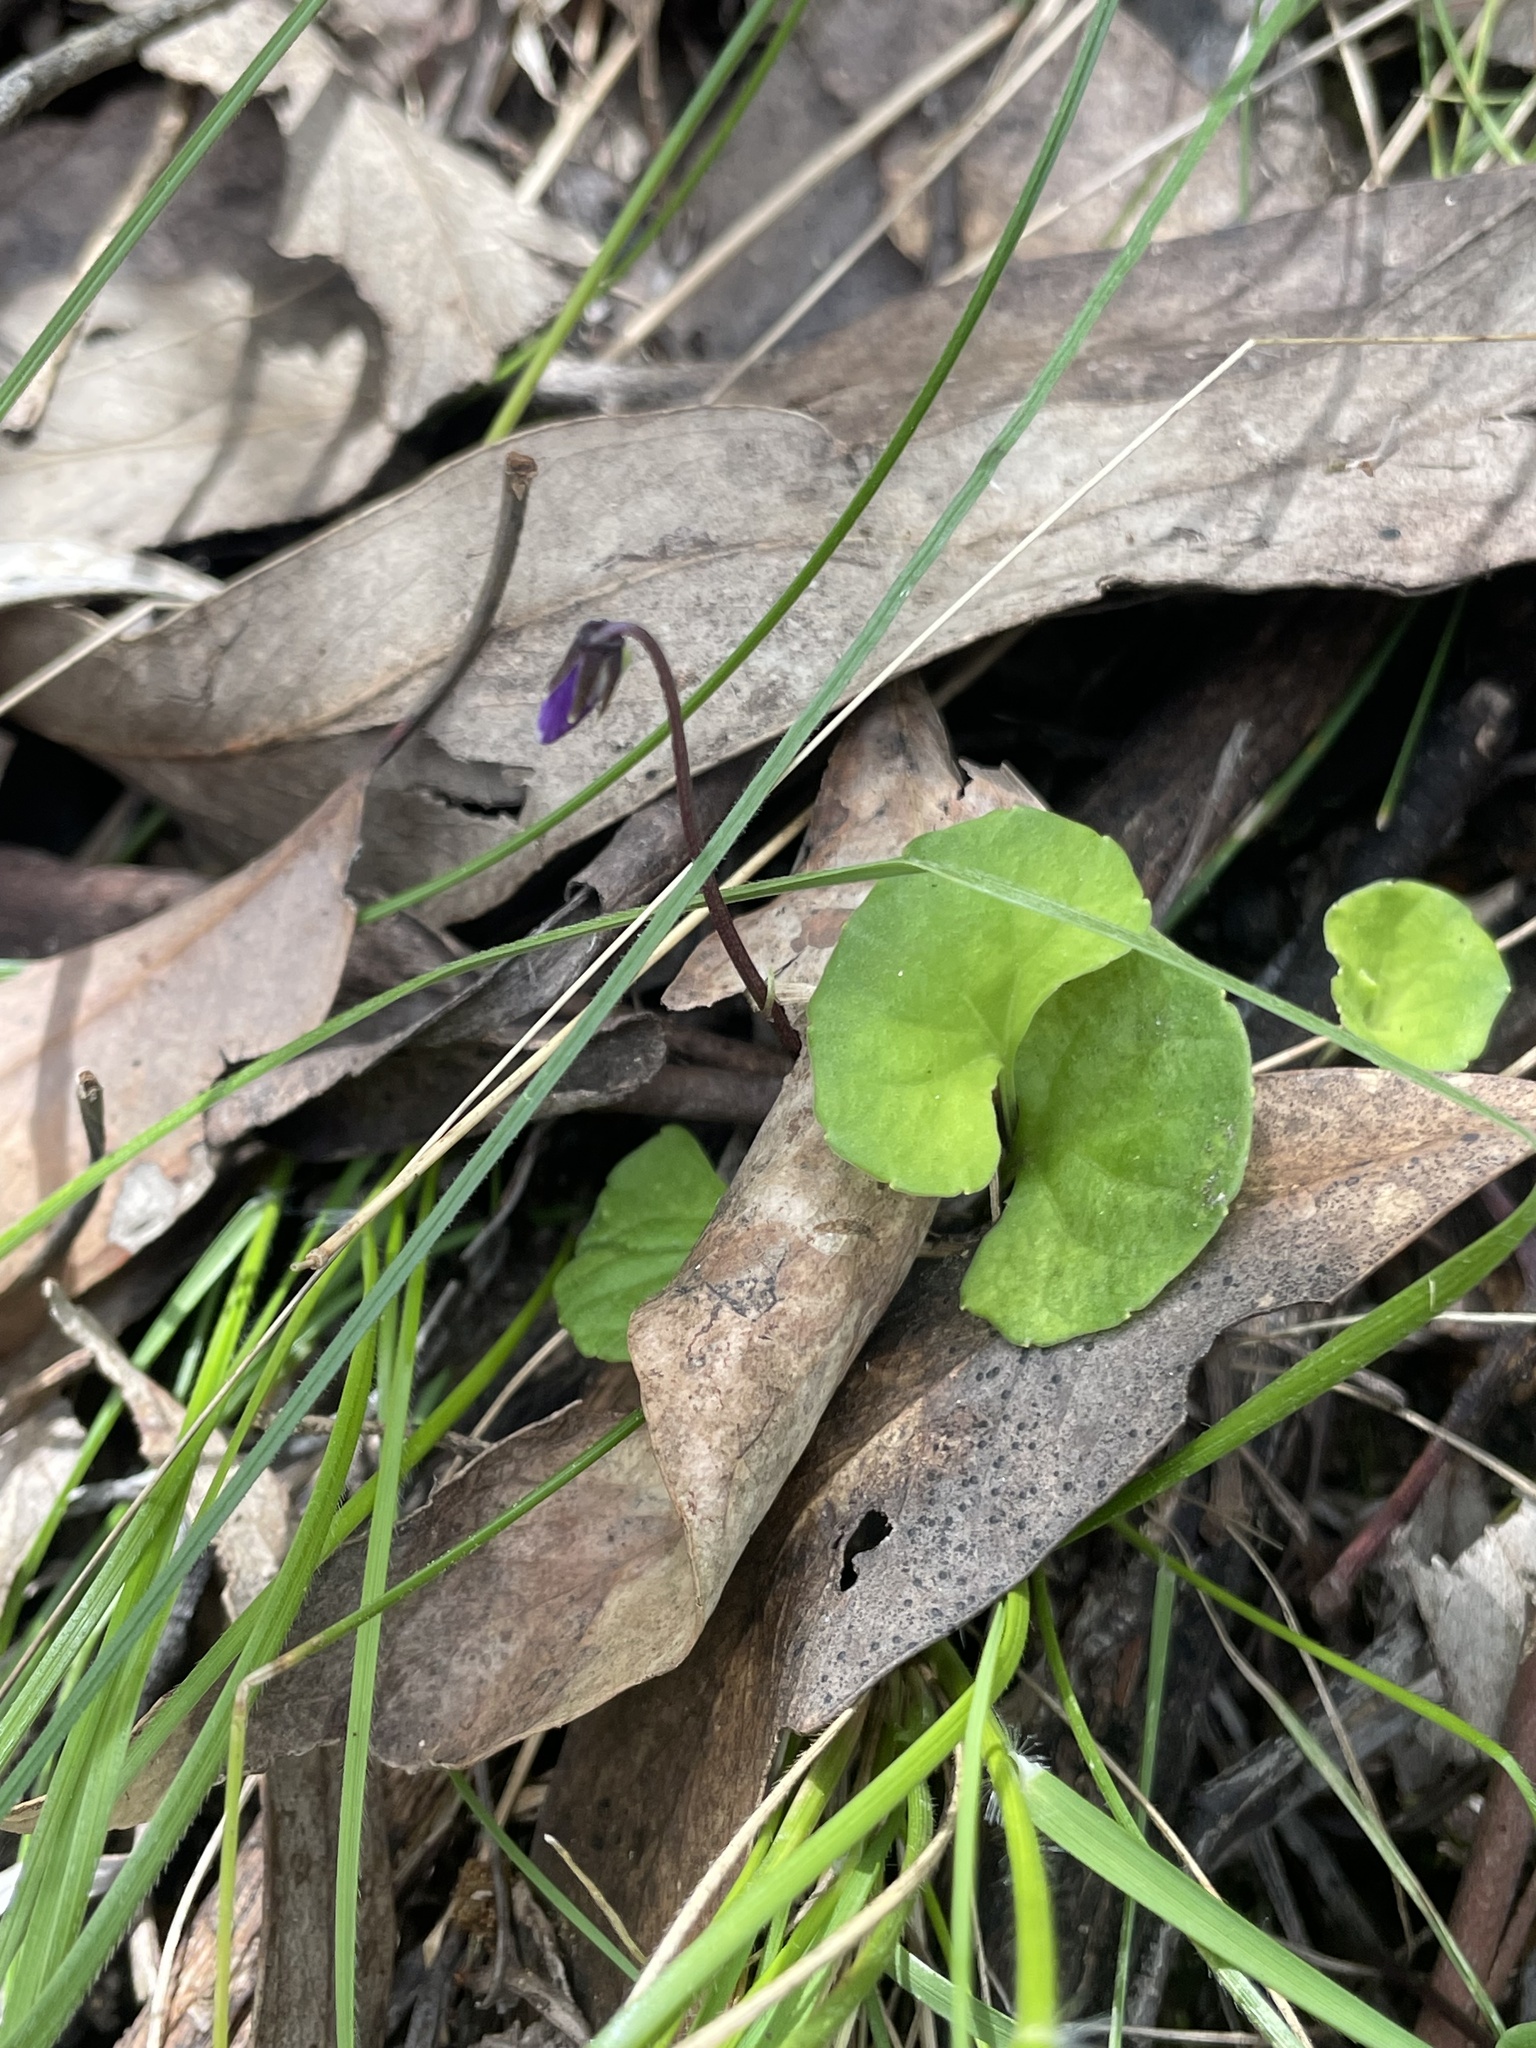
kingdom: Plantae
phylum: Tracheophyta
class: Magnoliopsida
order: Malpighiales
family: Violaceae
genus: Viola
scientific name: Viola hederacea
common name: Australian violet
